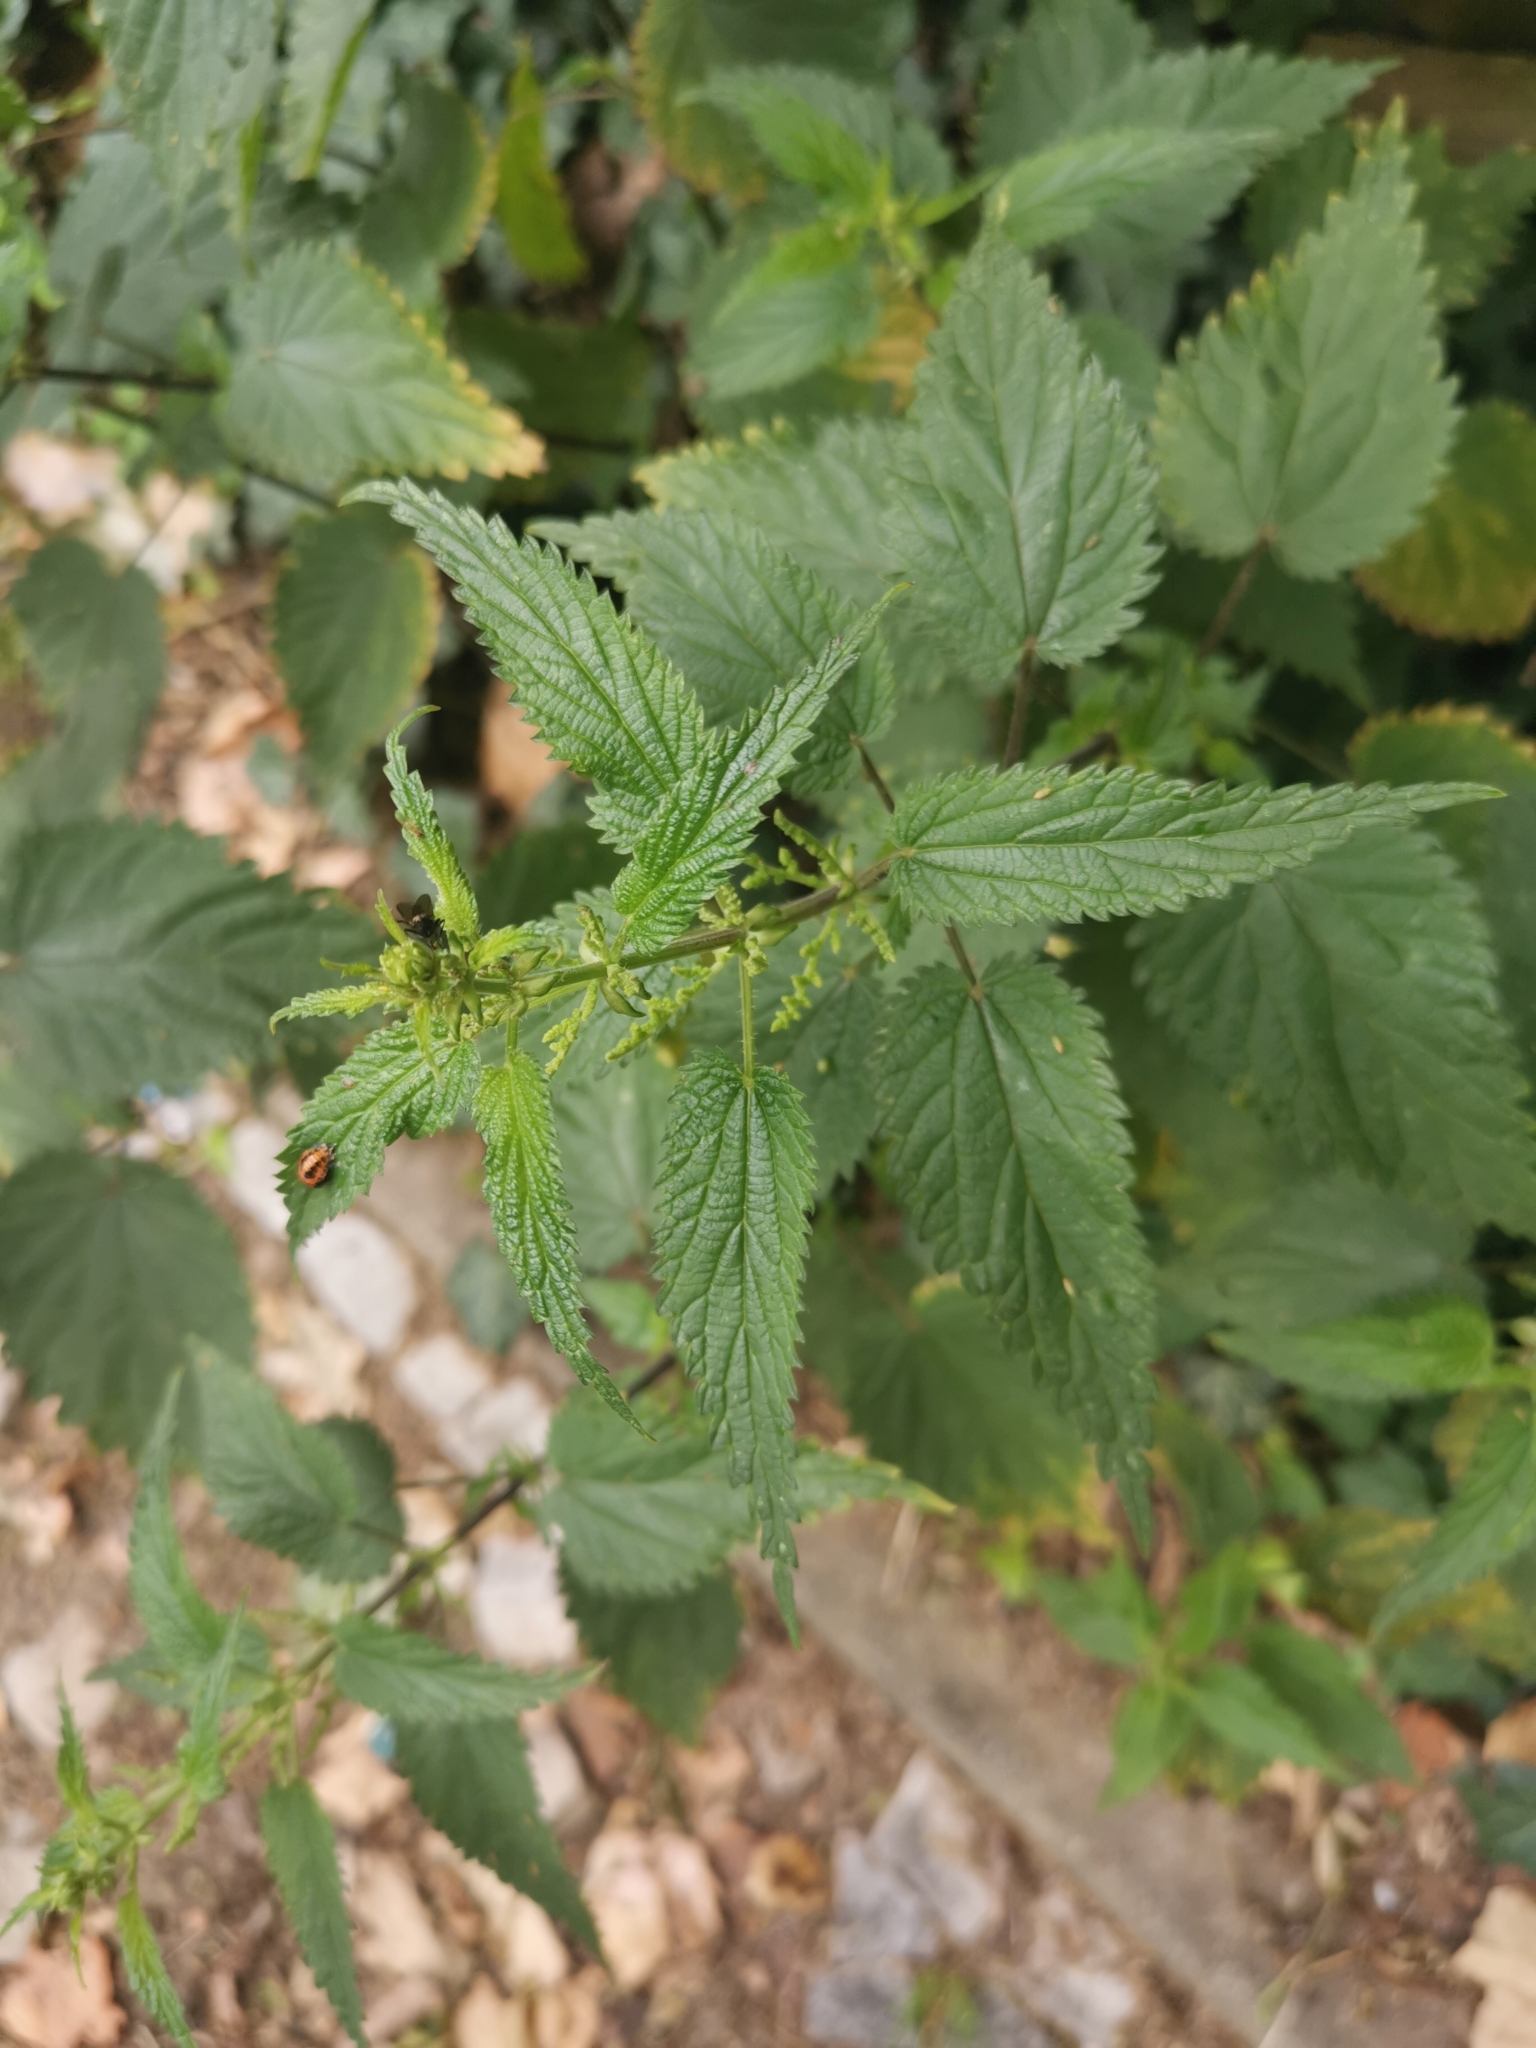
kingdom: Plantae
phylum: Tracheophyta
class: Magnoliopsida
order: Rosales
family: Urticaceae
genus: Urtica
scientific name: Urtica dioica
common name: Common nettle
